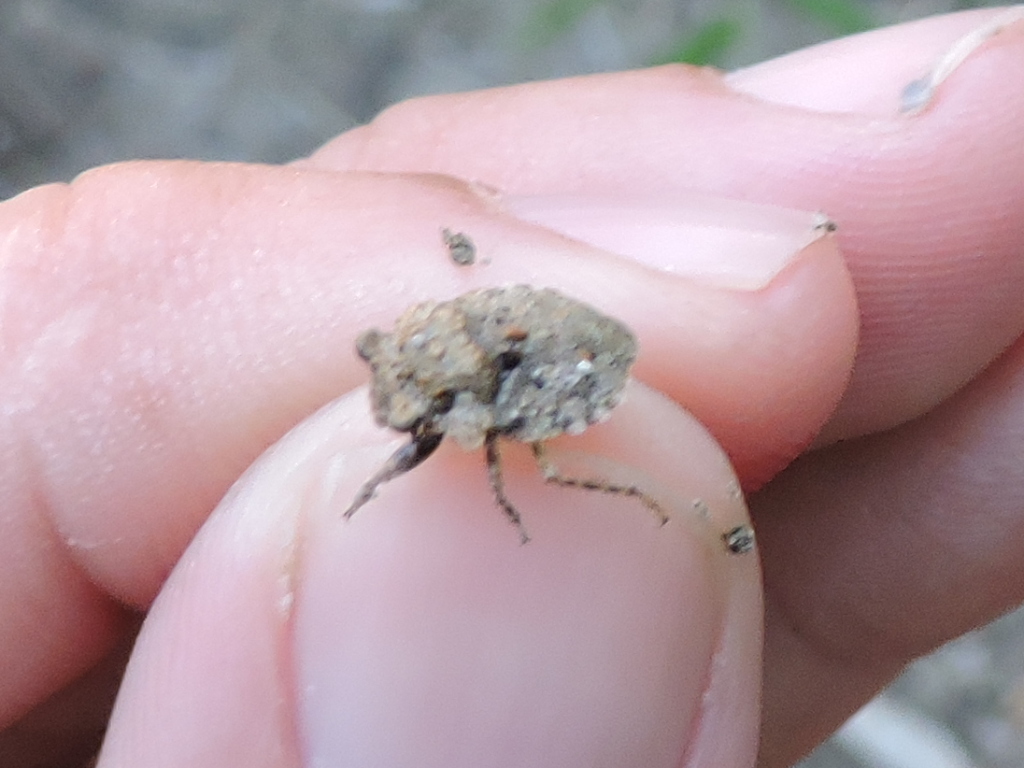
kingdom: Animalia
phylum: Arthropoda
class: Insecta
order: Hemiptera
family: Gelastocoridae
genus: Gelastocoris
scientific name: Gelastocoris oculatus
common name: Toad bug
